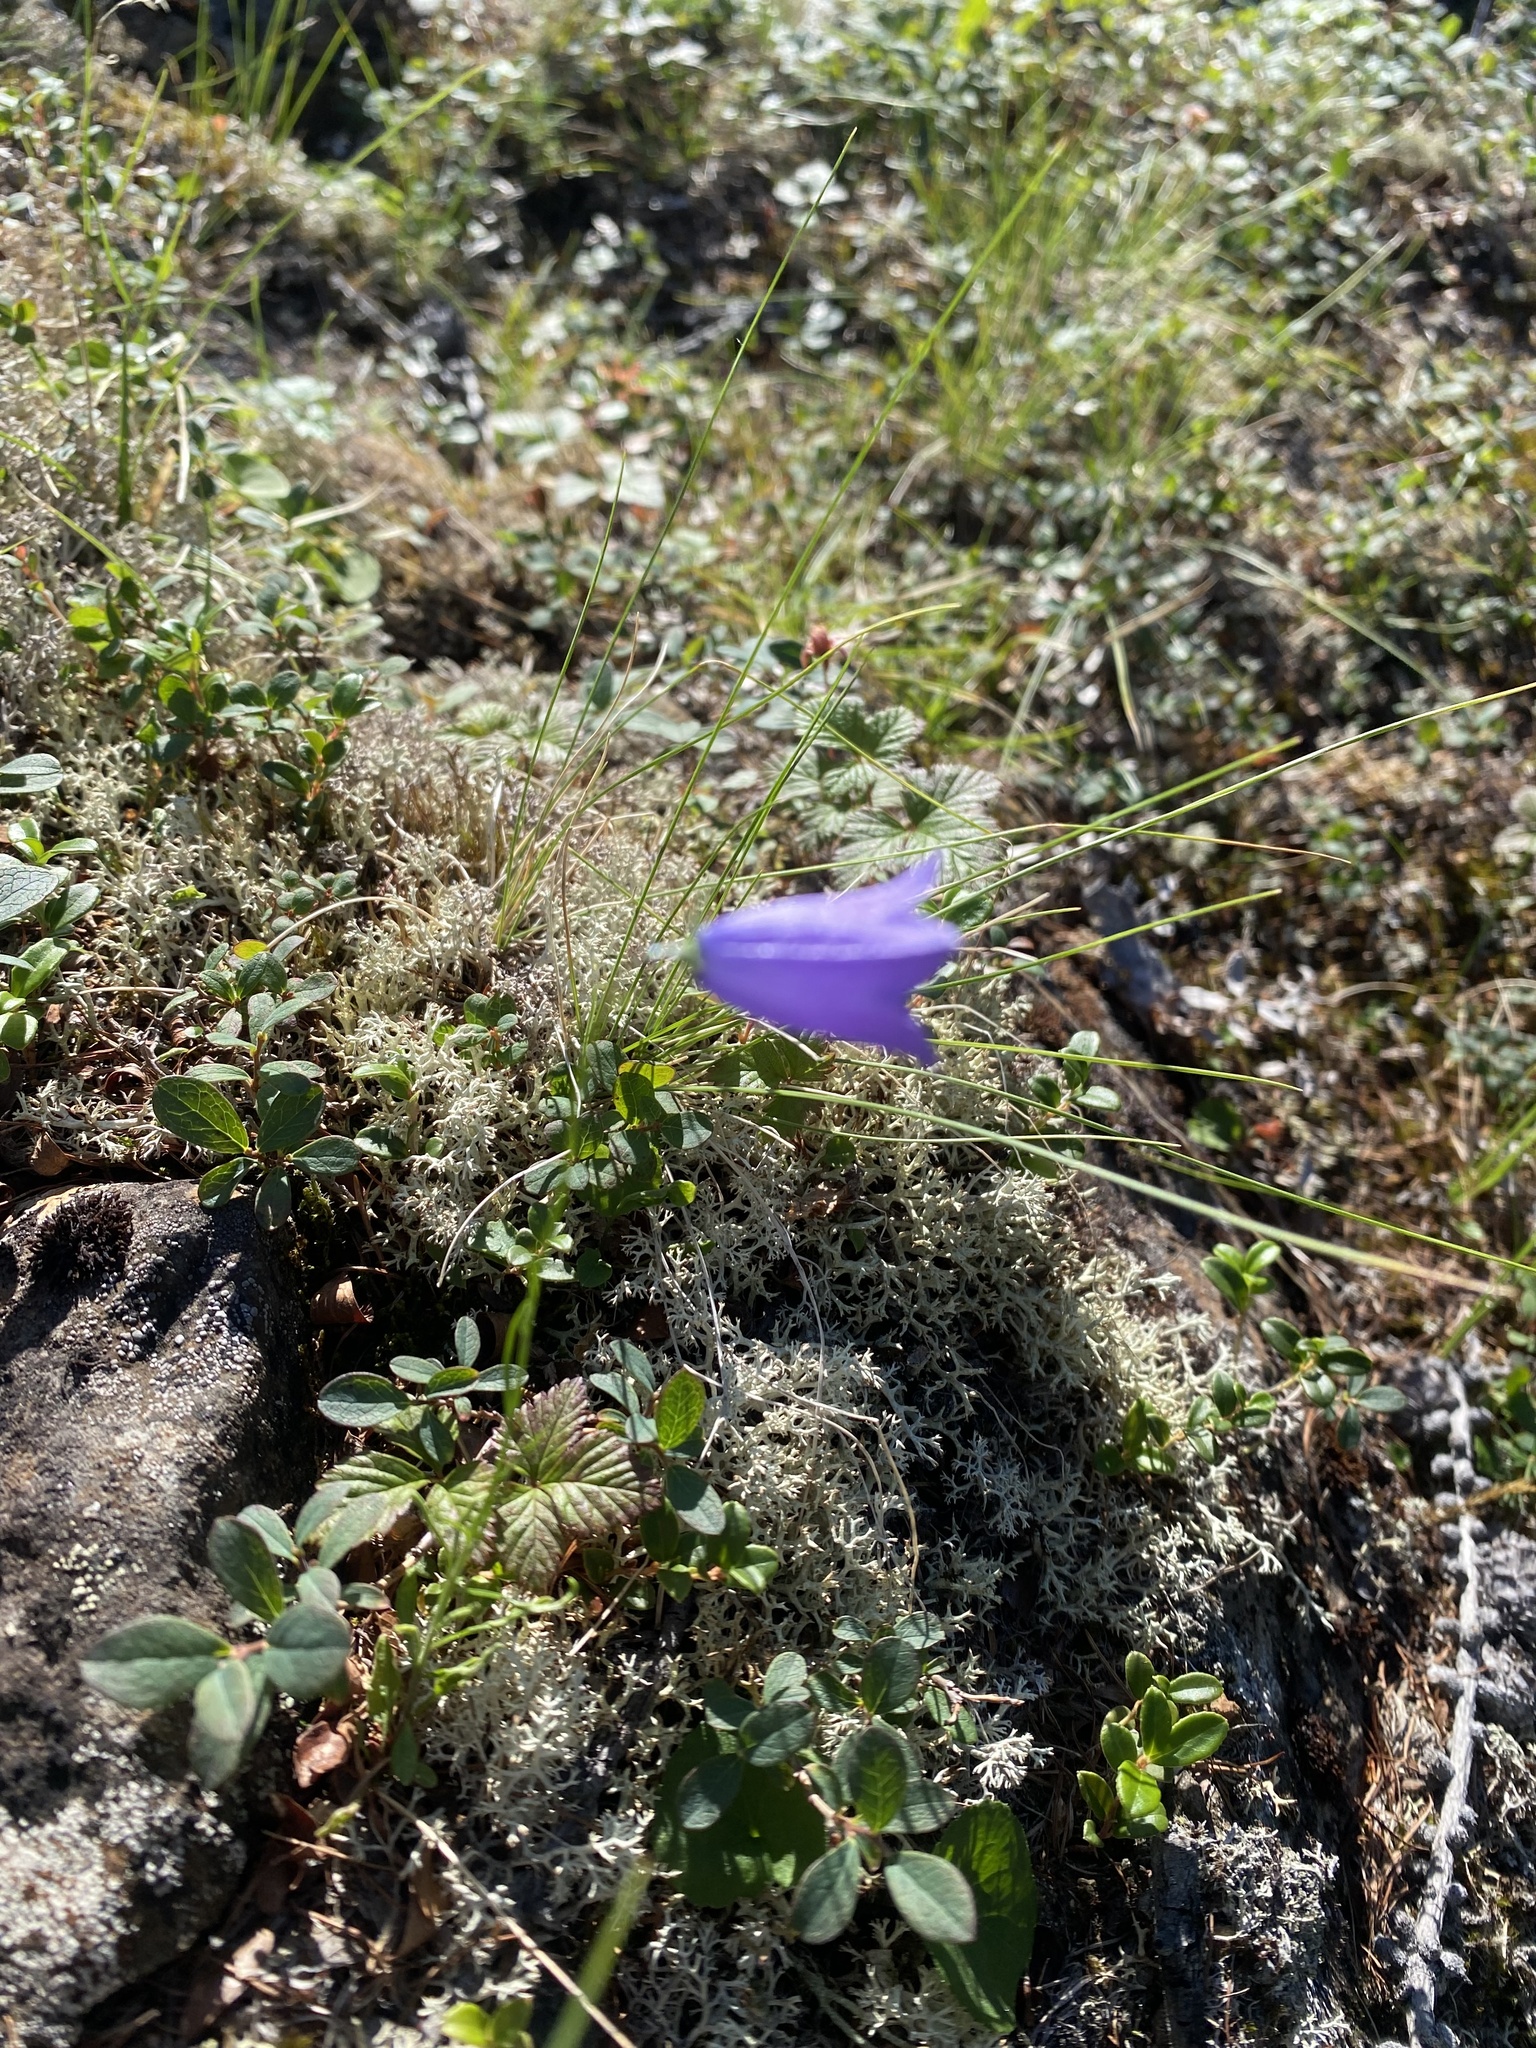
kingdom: Plantae
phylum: Tracheophyta
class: Magnoliopsida
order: Asterales
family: Campanulaceae
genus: Campanula
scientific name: Campanula rotundifolia
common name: Harebell
